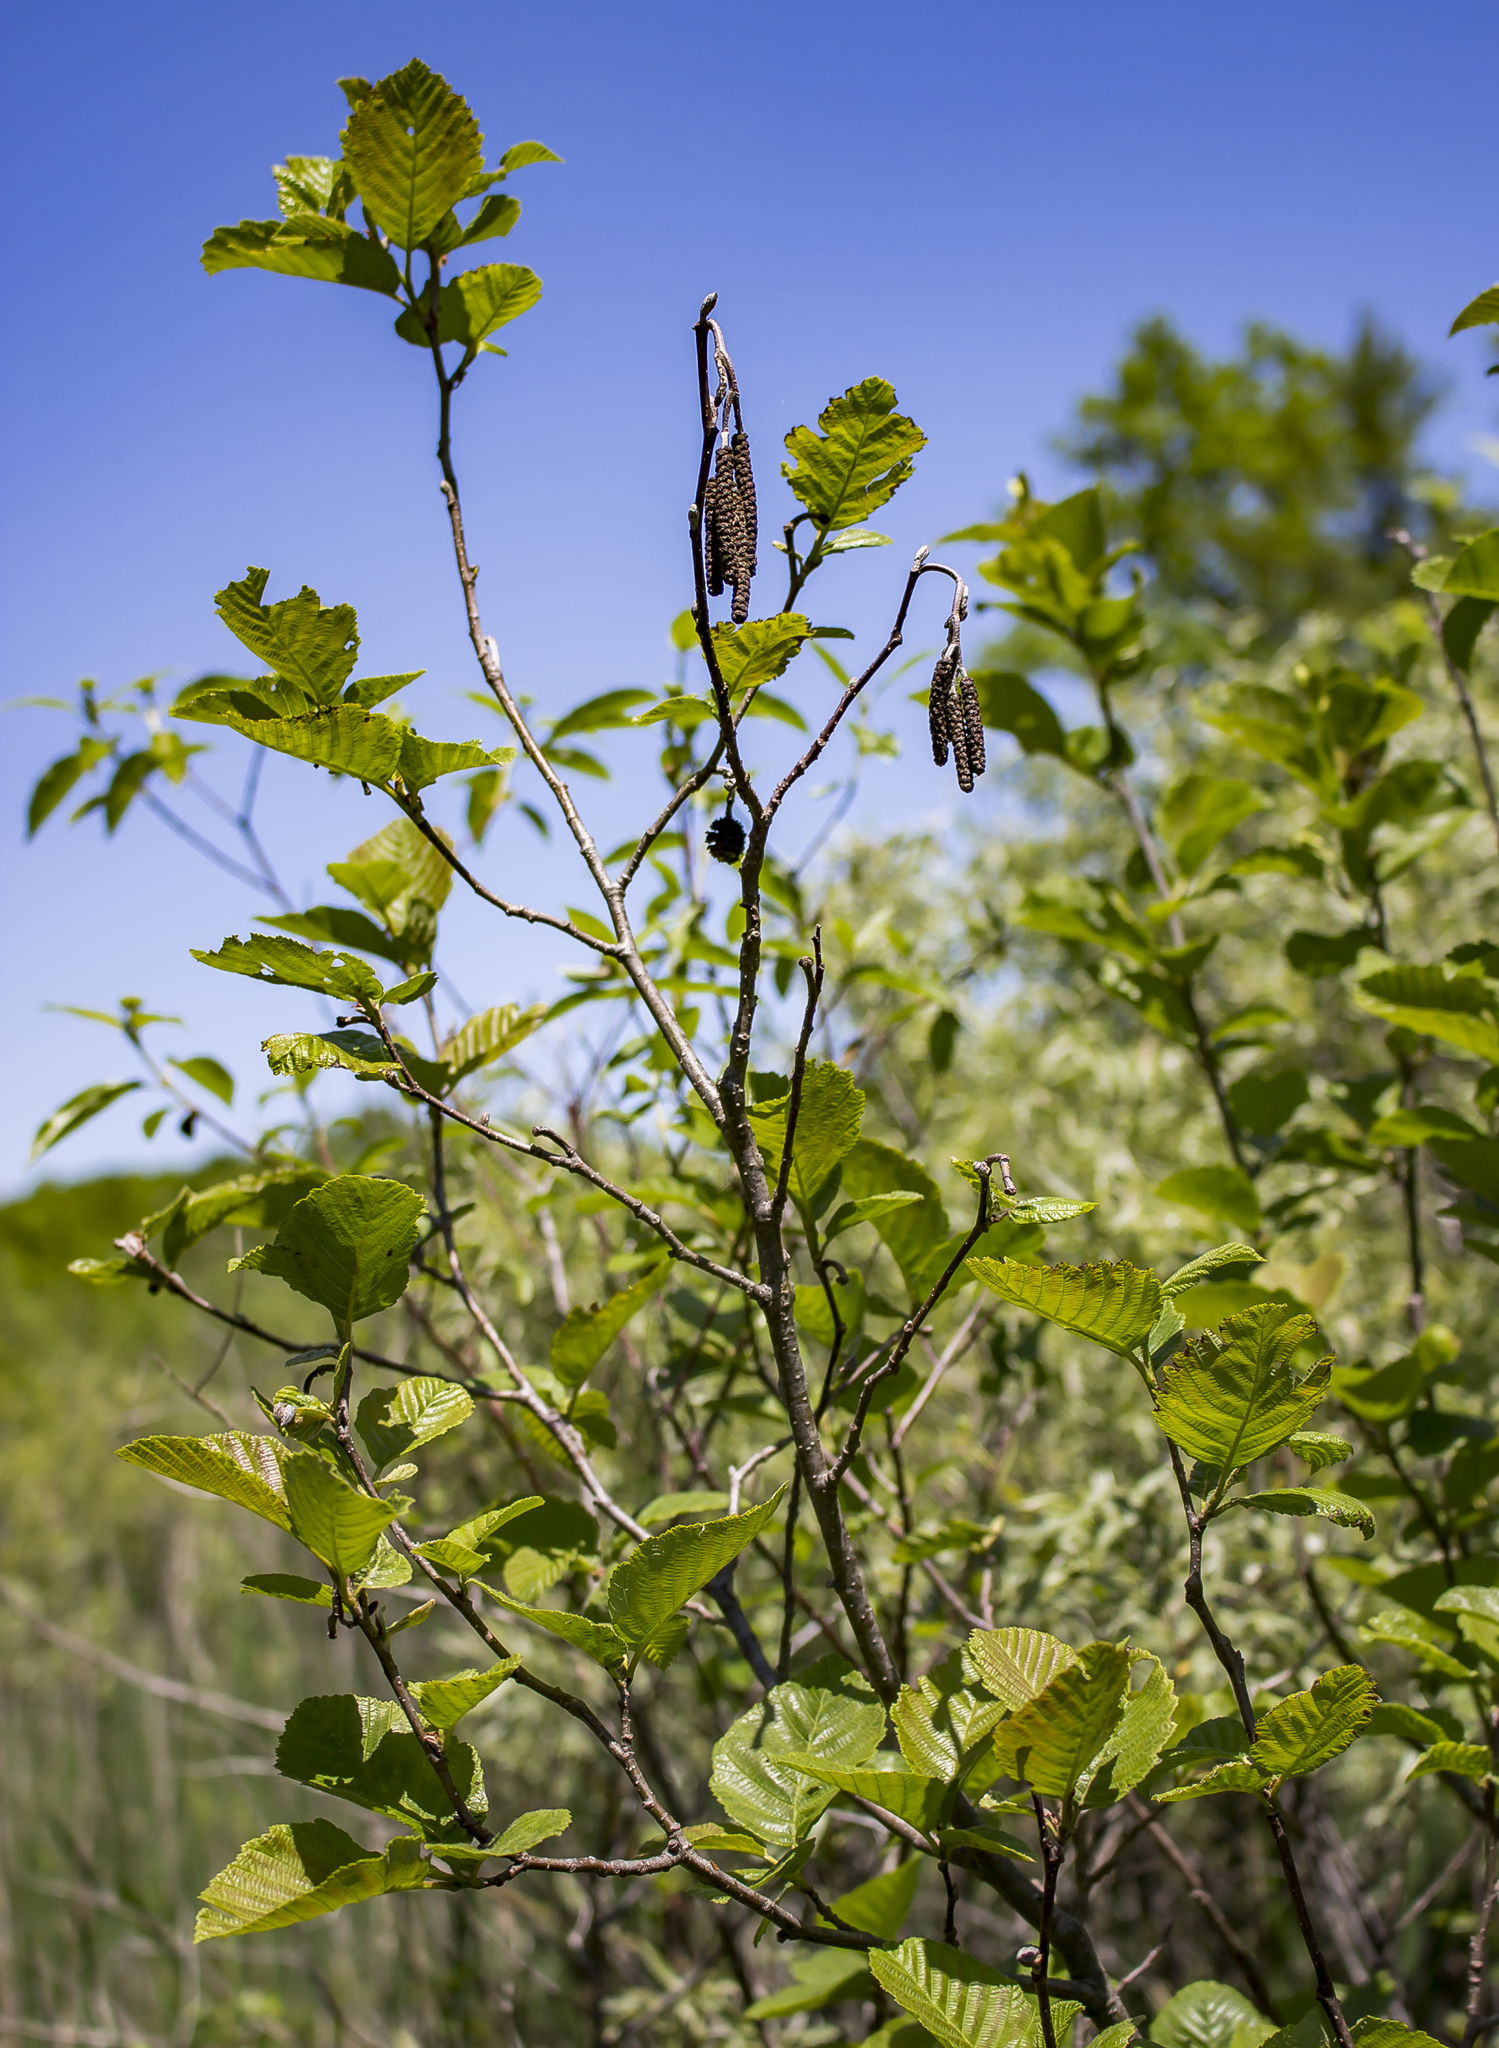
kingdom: Plantae
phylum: Tracheophyta
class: Magnoliopsida
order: Fagales
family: Betulaceae
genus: Alnus
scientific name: Alnus incana
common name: Grey alder
